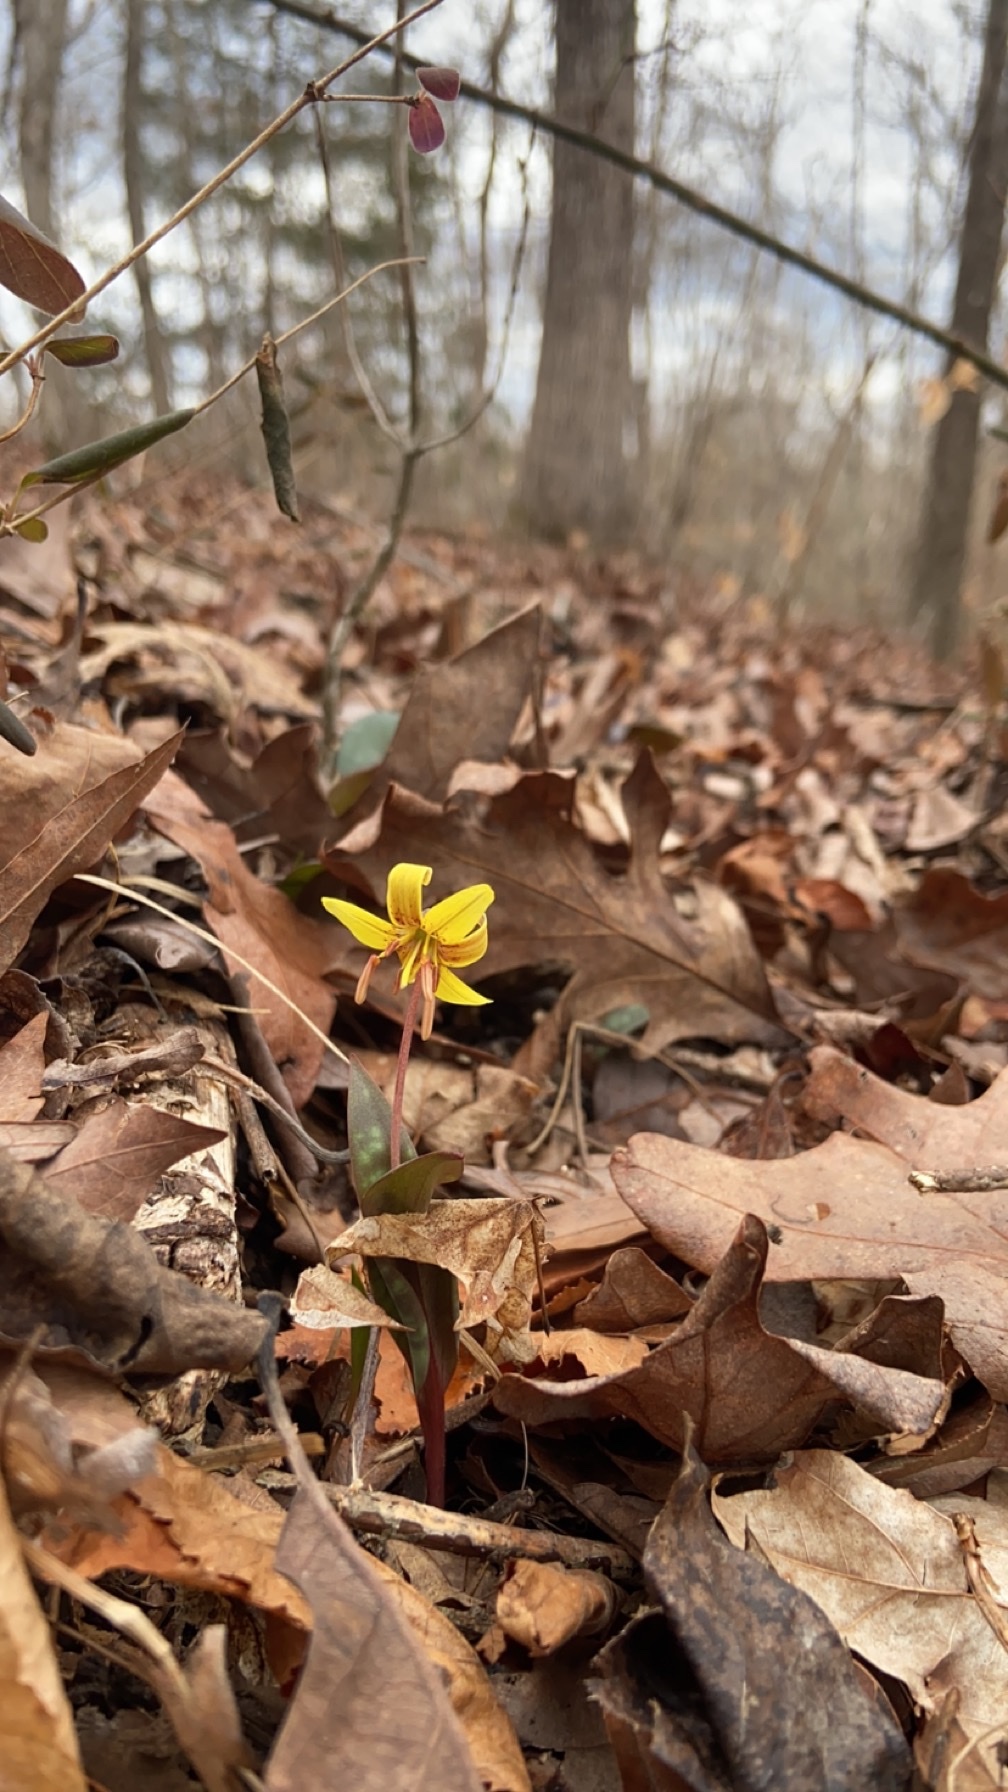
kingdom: Plantae
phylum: Tracheophyta
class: Liliopsida
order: Liliales
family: Liliaceae
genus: Erythronium
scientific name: Erythronium umbilicatum
